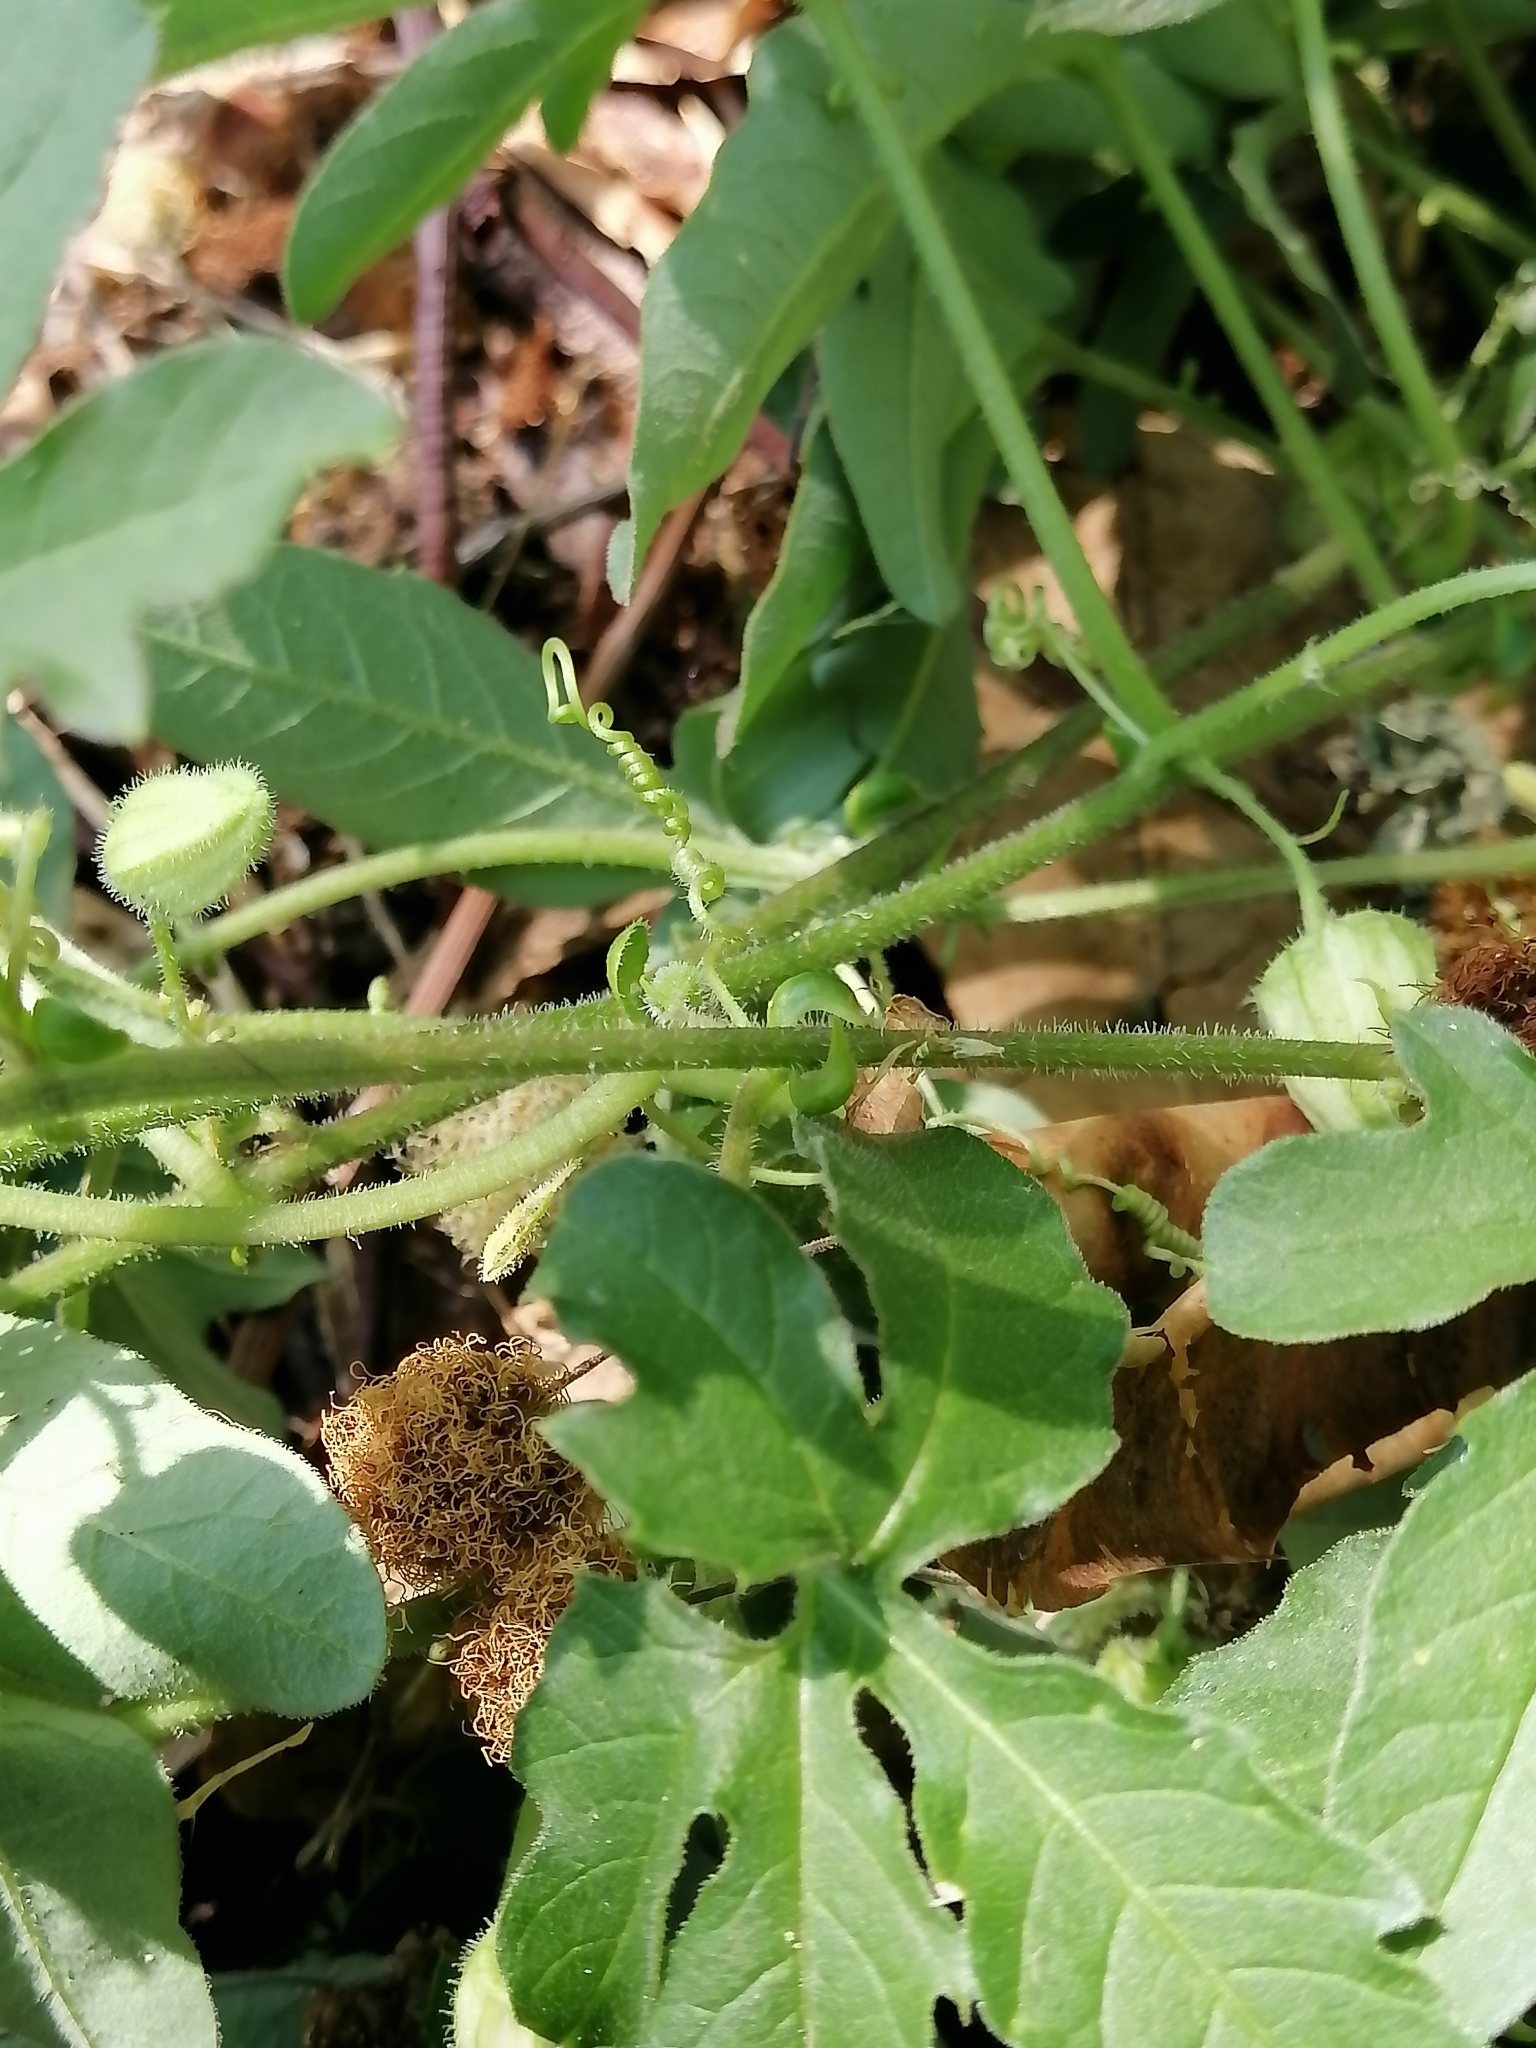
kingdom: Plantae
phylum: Tracheophyta
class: Magnoliopsida
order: Malpighiales
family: Passifloraceae
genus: Passiflora
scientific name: Passiflora bryonioides
